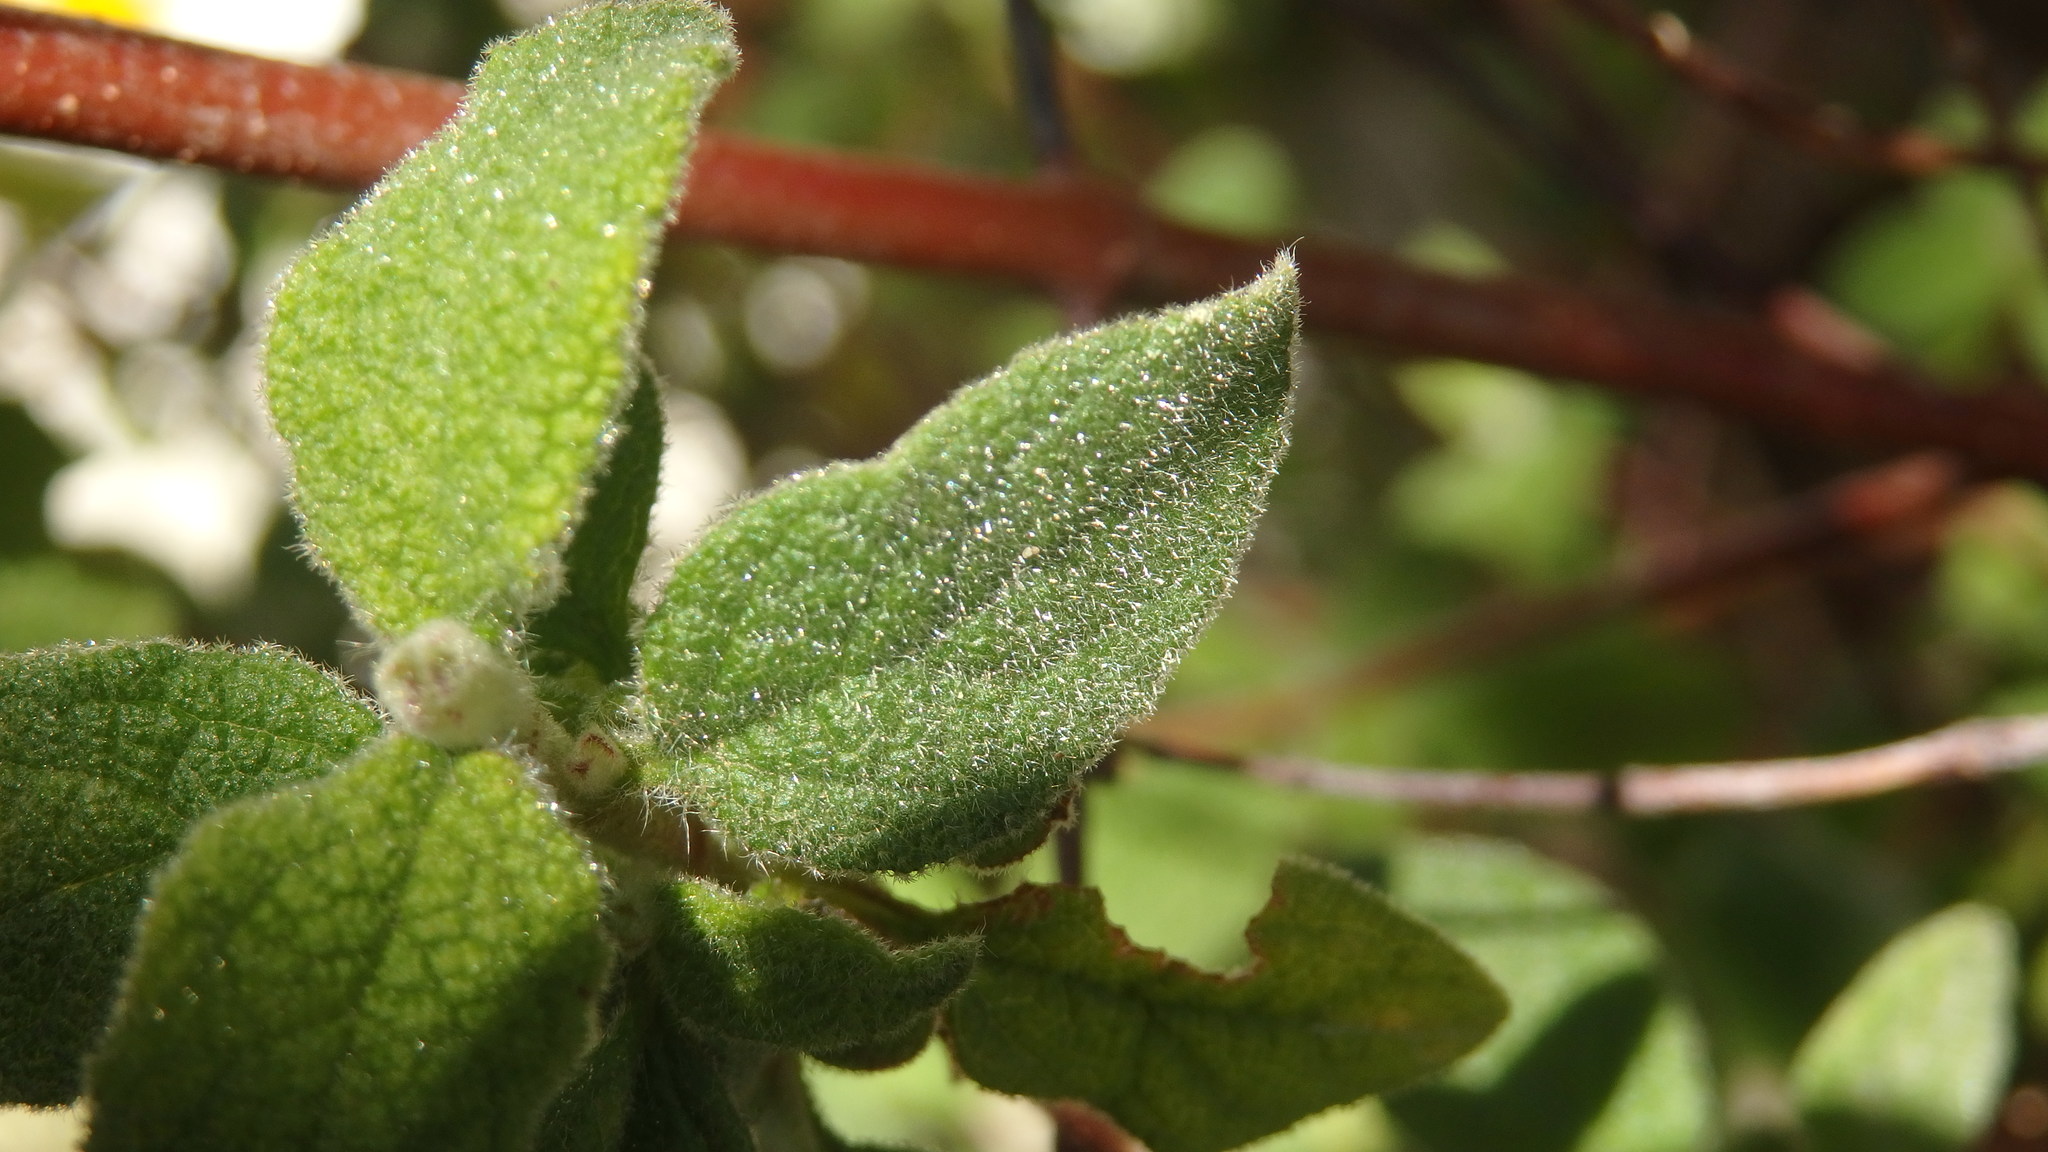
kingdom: Plantae
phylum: Tracheophyta
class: Magnoliopsida
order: Malvales
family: Cistaceae
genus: Cistus
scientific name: Cistus salviifolius
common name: Salvia cistus
